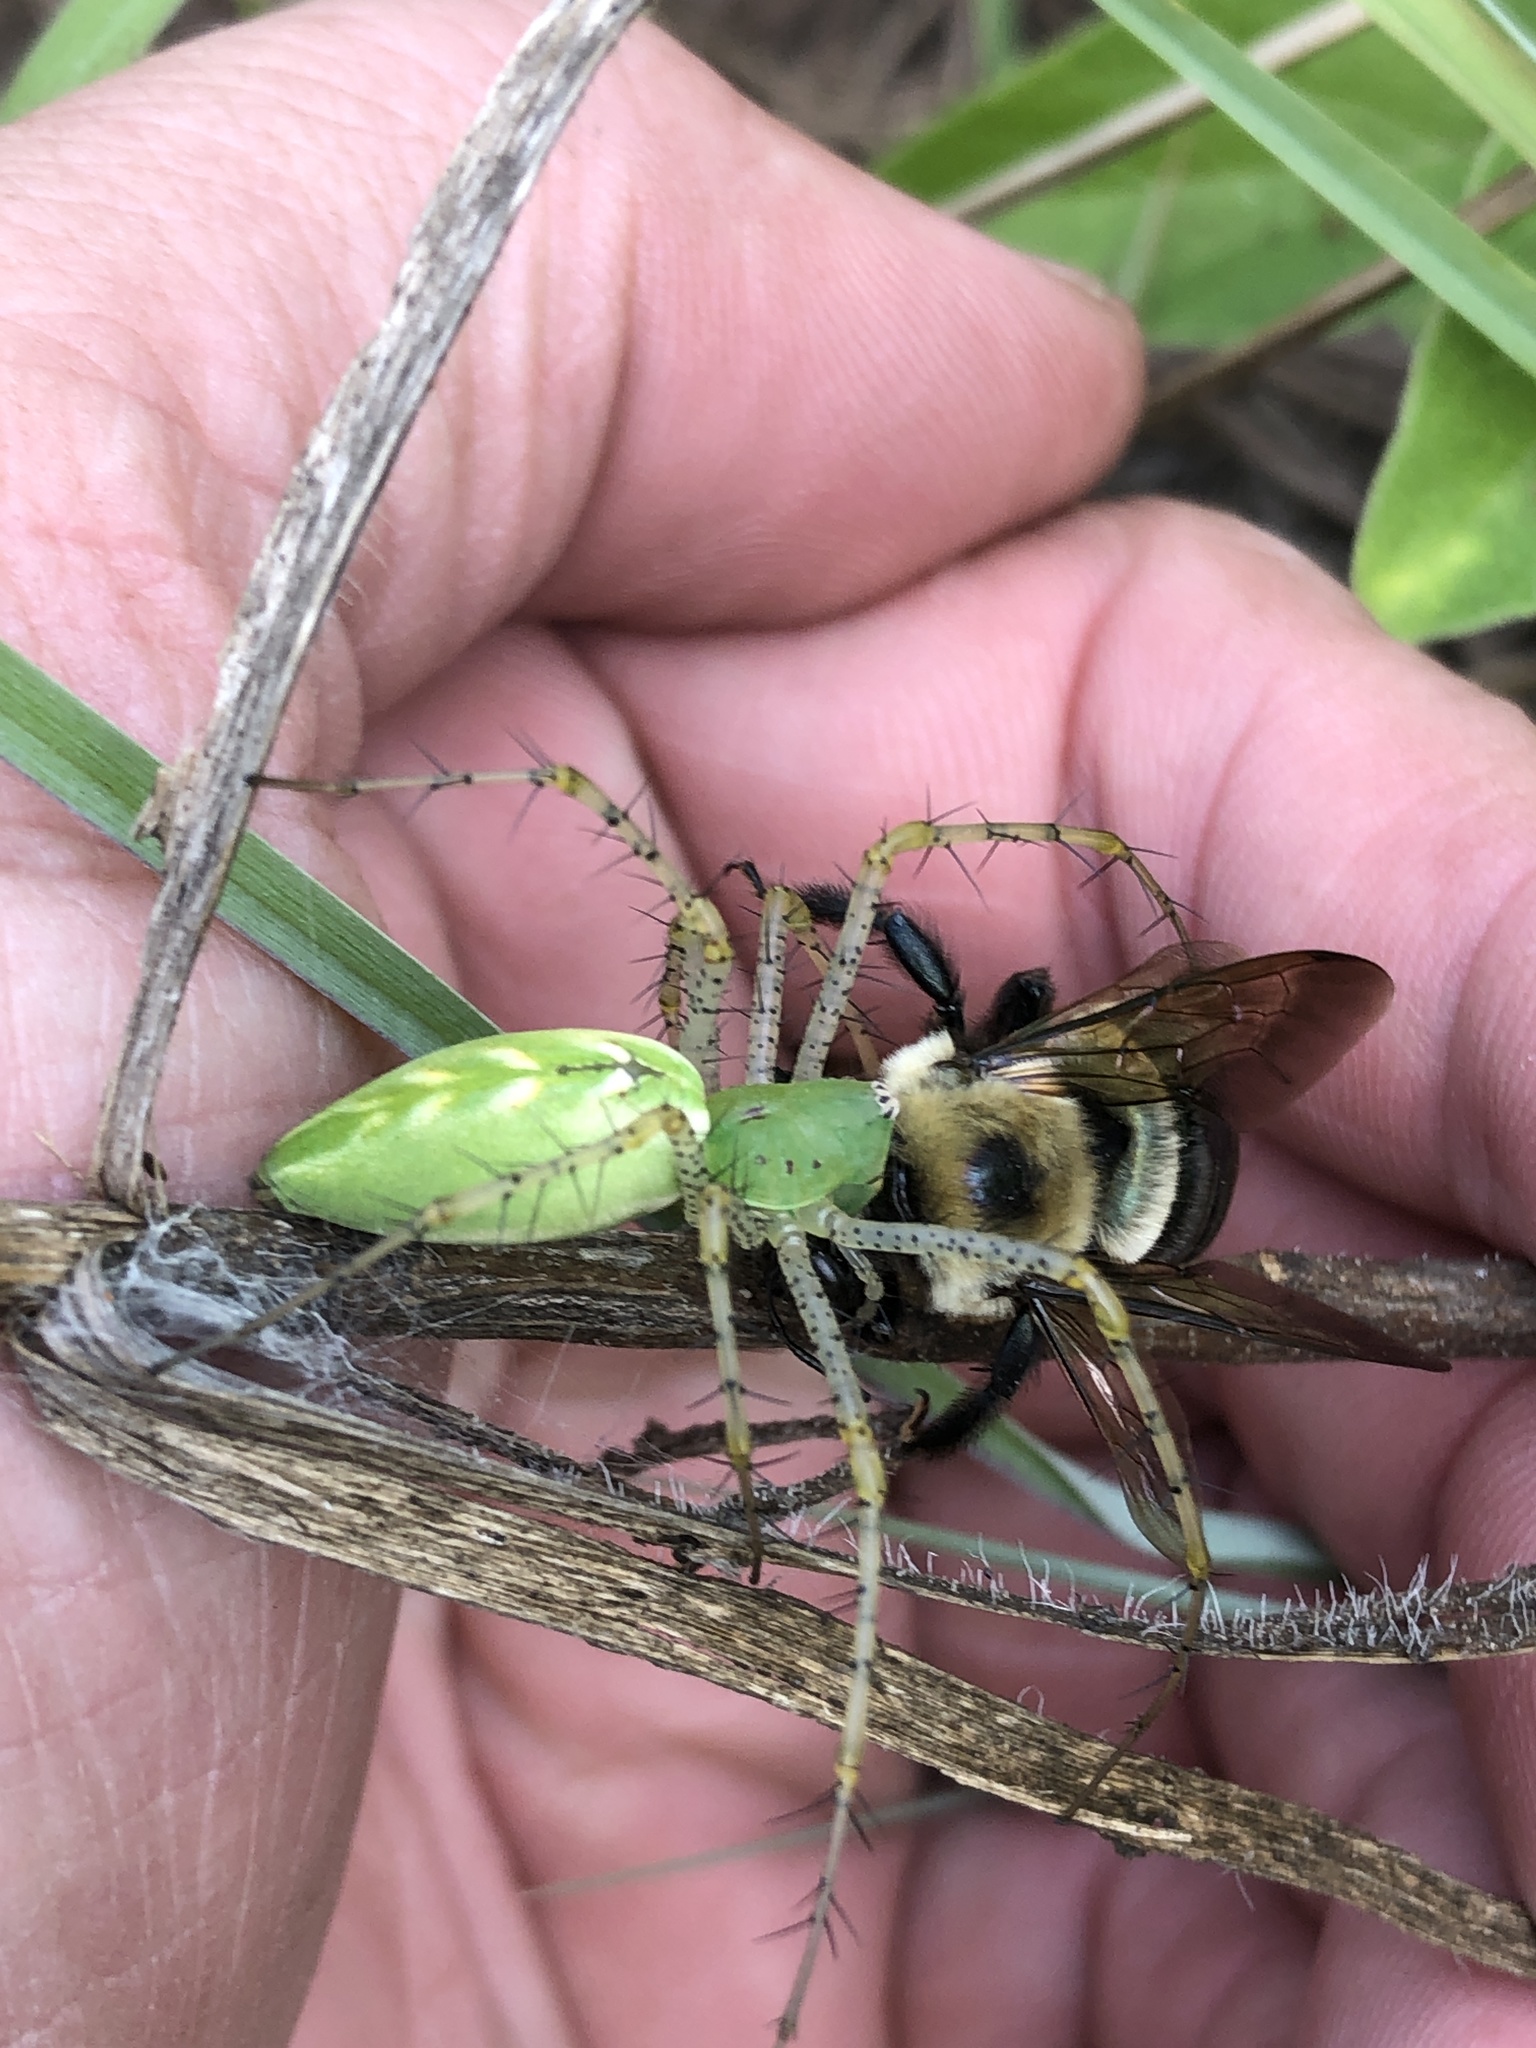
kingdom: Animalia
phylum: Arthropoda
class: Arachnida
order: Araneae
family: Oxyopidae
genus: Peucetia
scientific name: Peucetia viridans
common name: Lynx spiders
